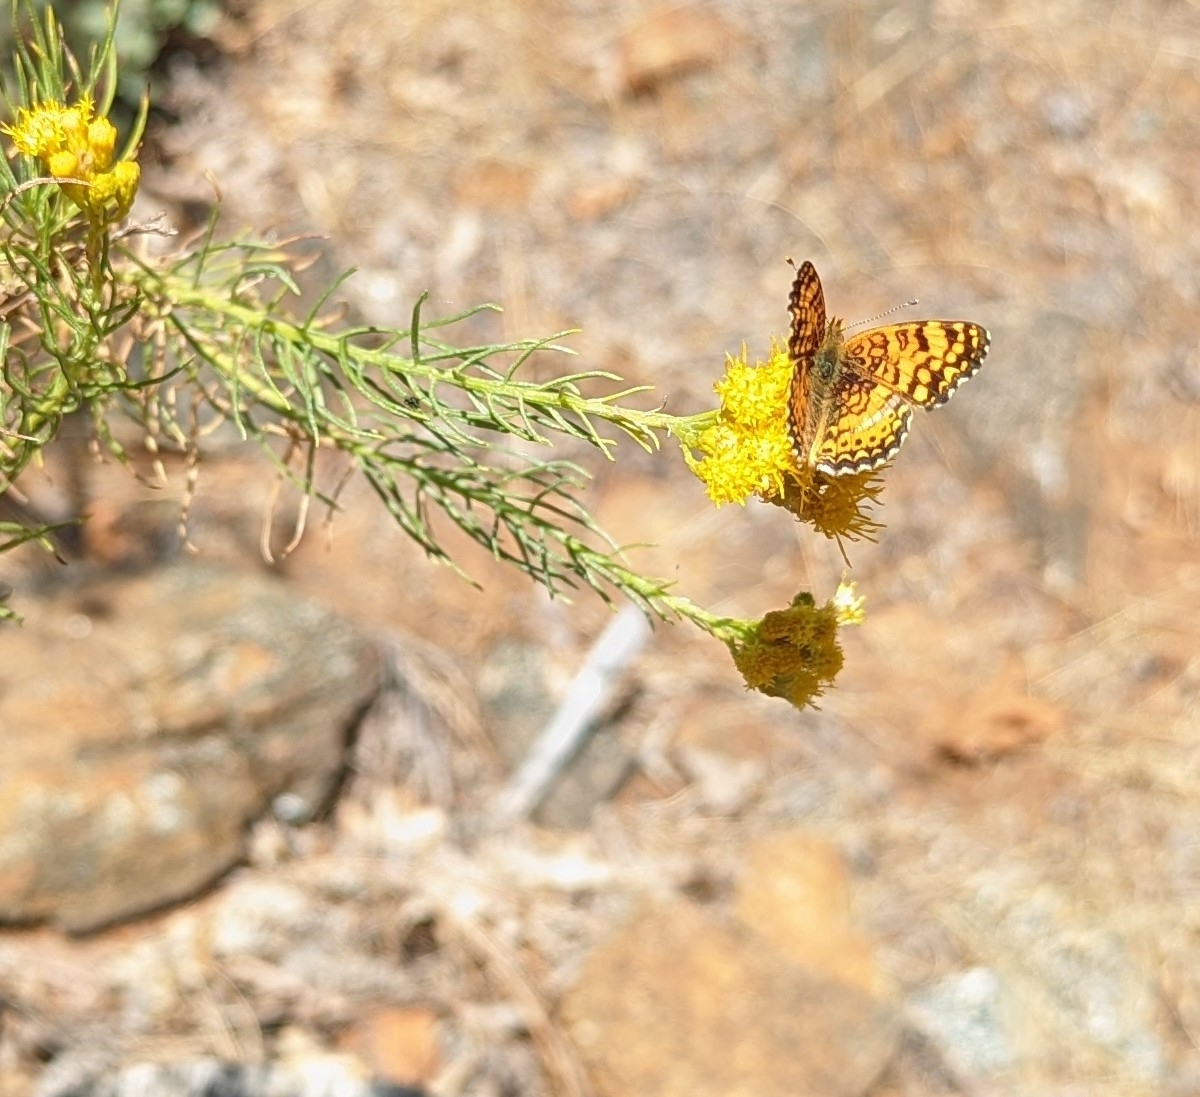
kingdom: Animalia
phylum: Arthropoda
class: Insecta
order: Lepidoptera
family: Nymphalidae
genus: Eresia
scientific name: Eresia aveyrona
